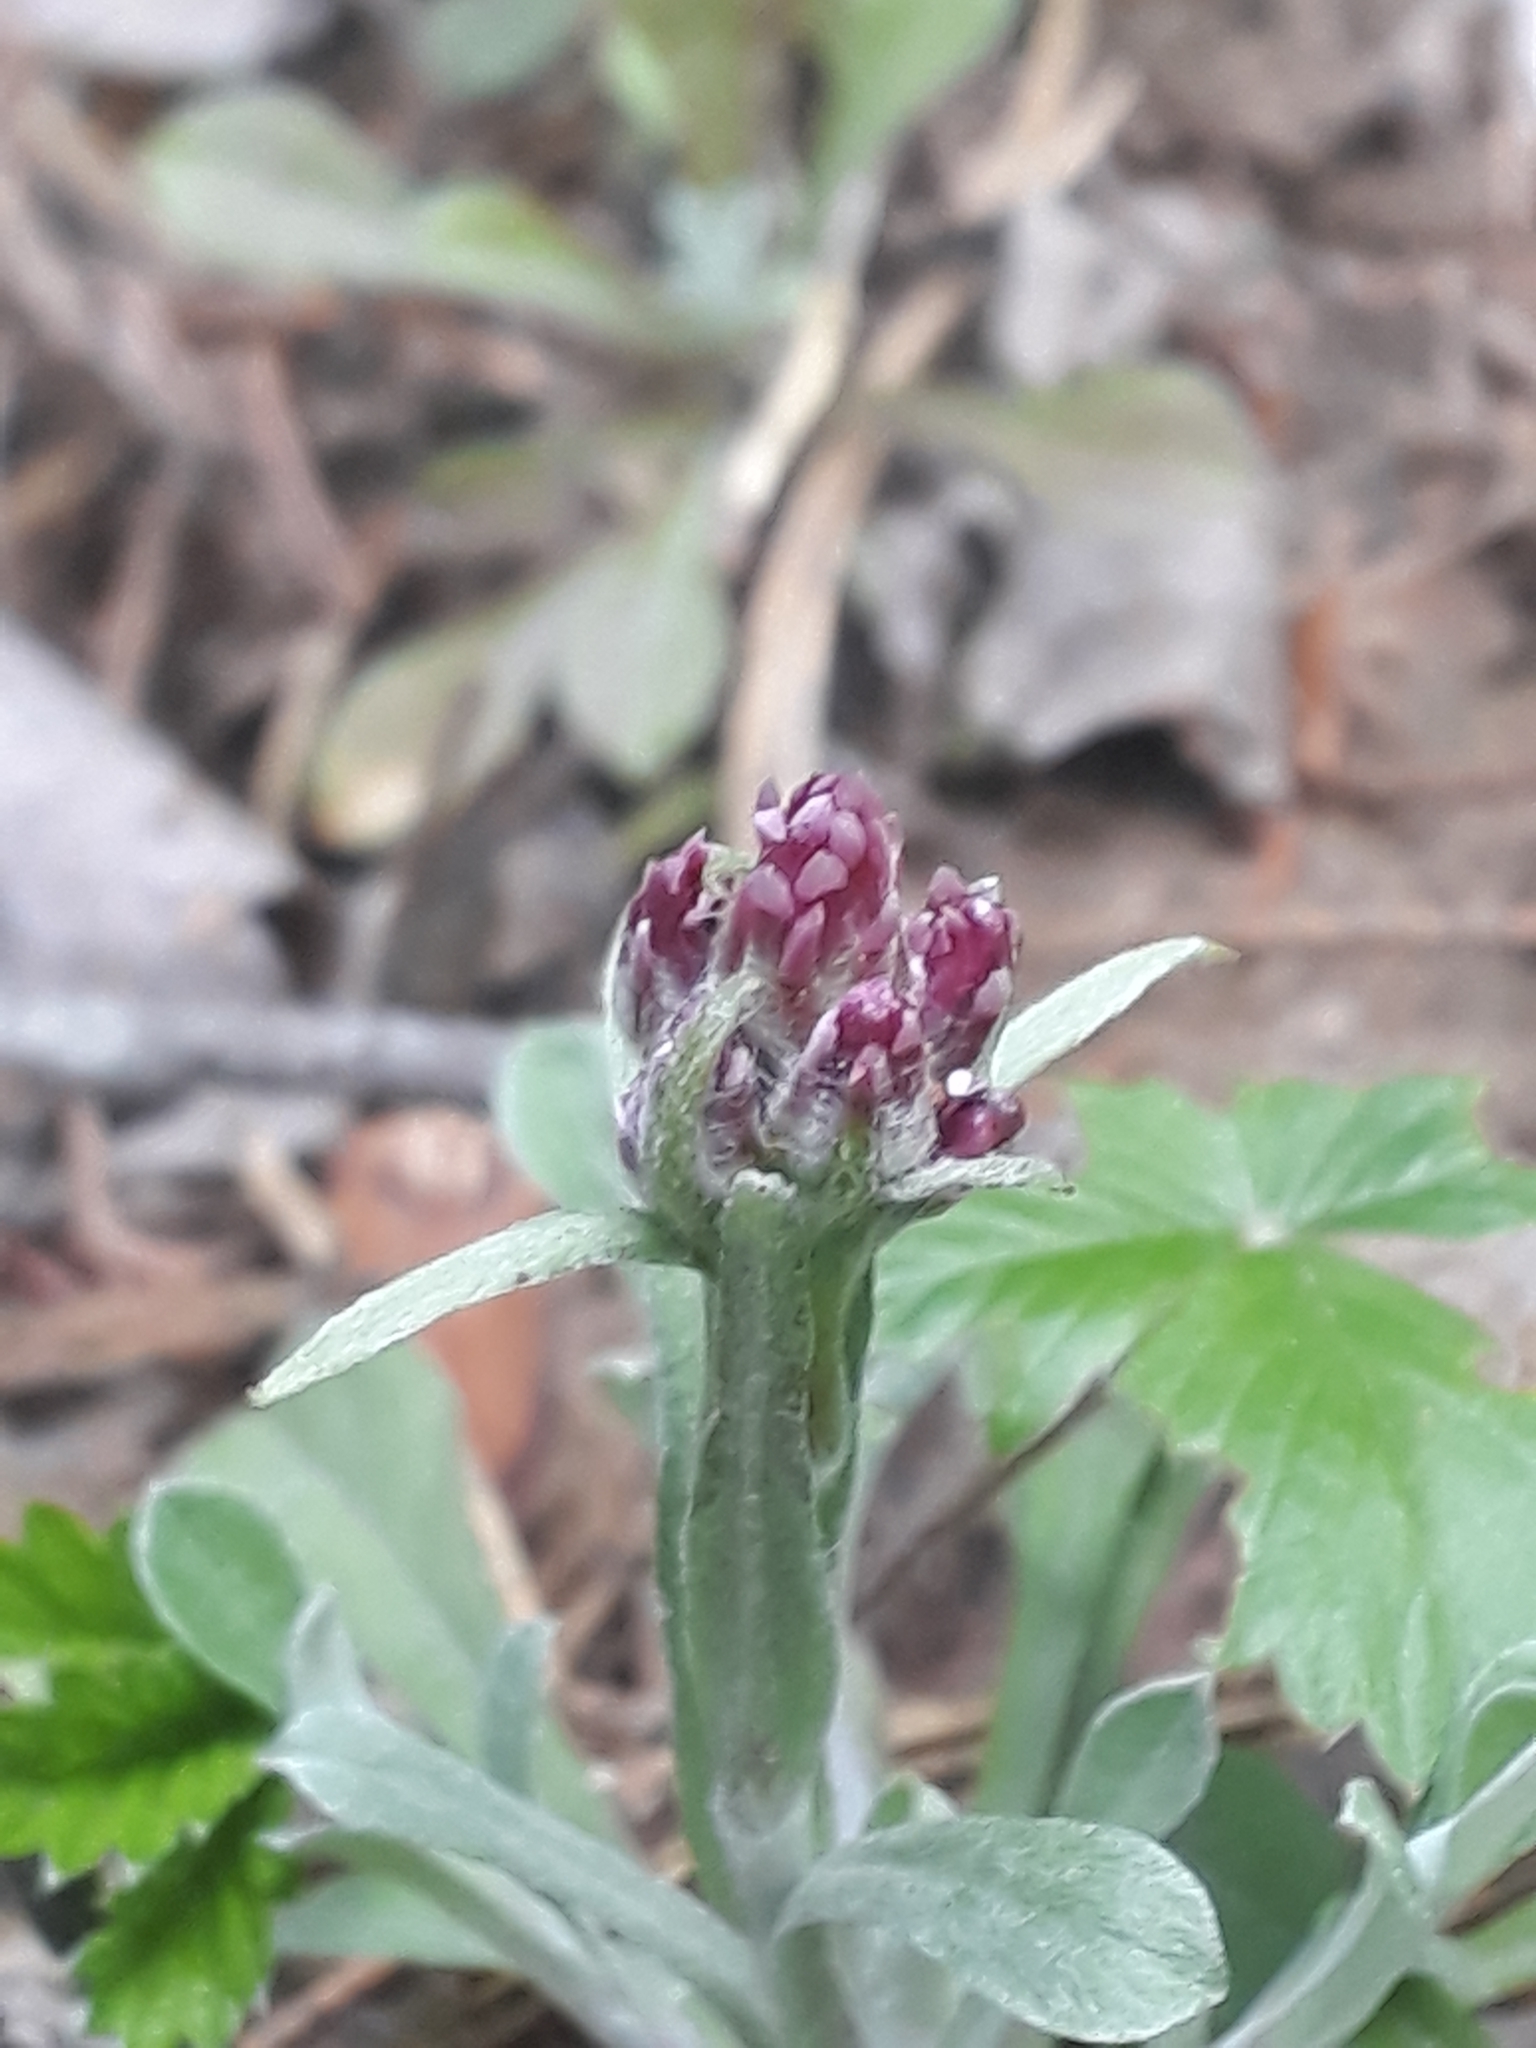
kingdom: Plantae
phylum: Tracheophyta
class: Magnoliopsida
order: Asterales
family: Asteraceae
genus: Antennaria
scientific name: Antennaria dioica
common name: Mountain everlasting
